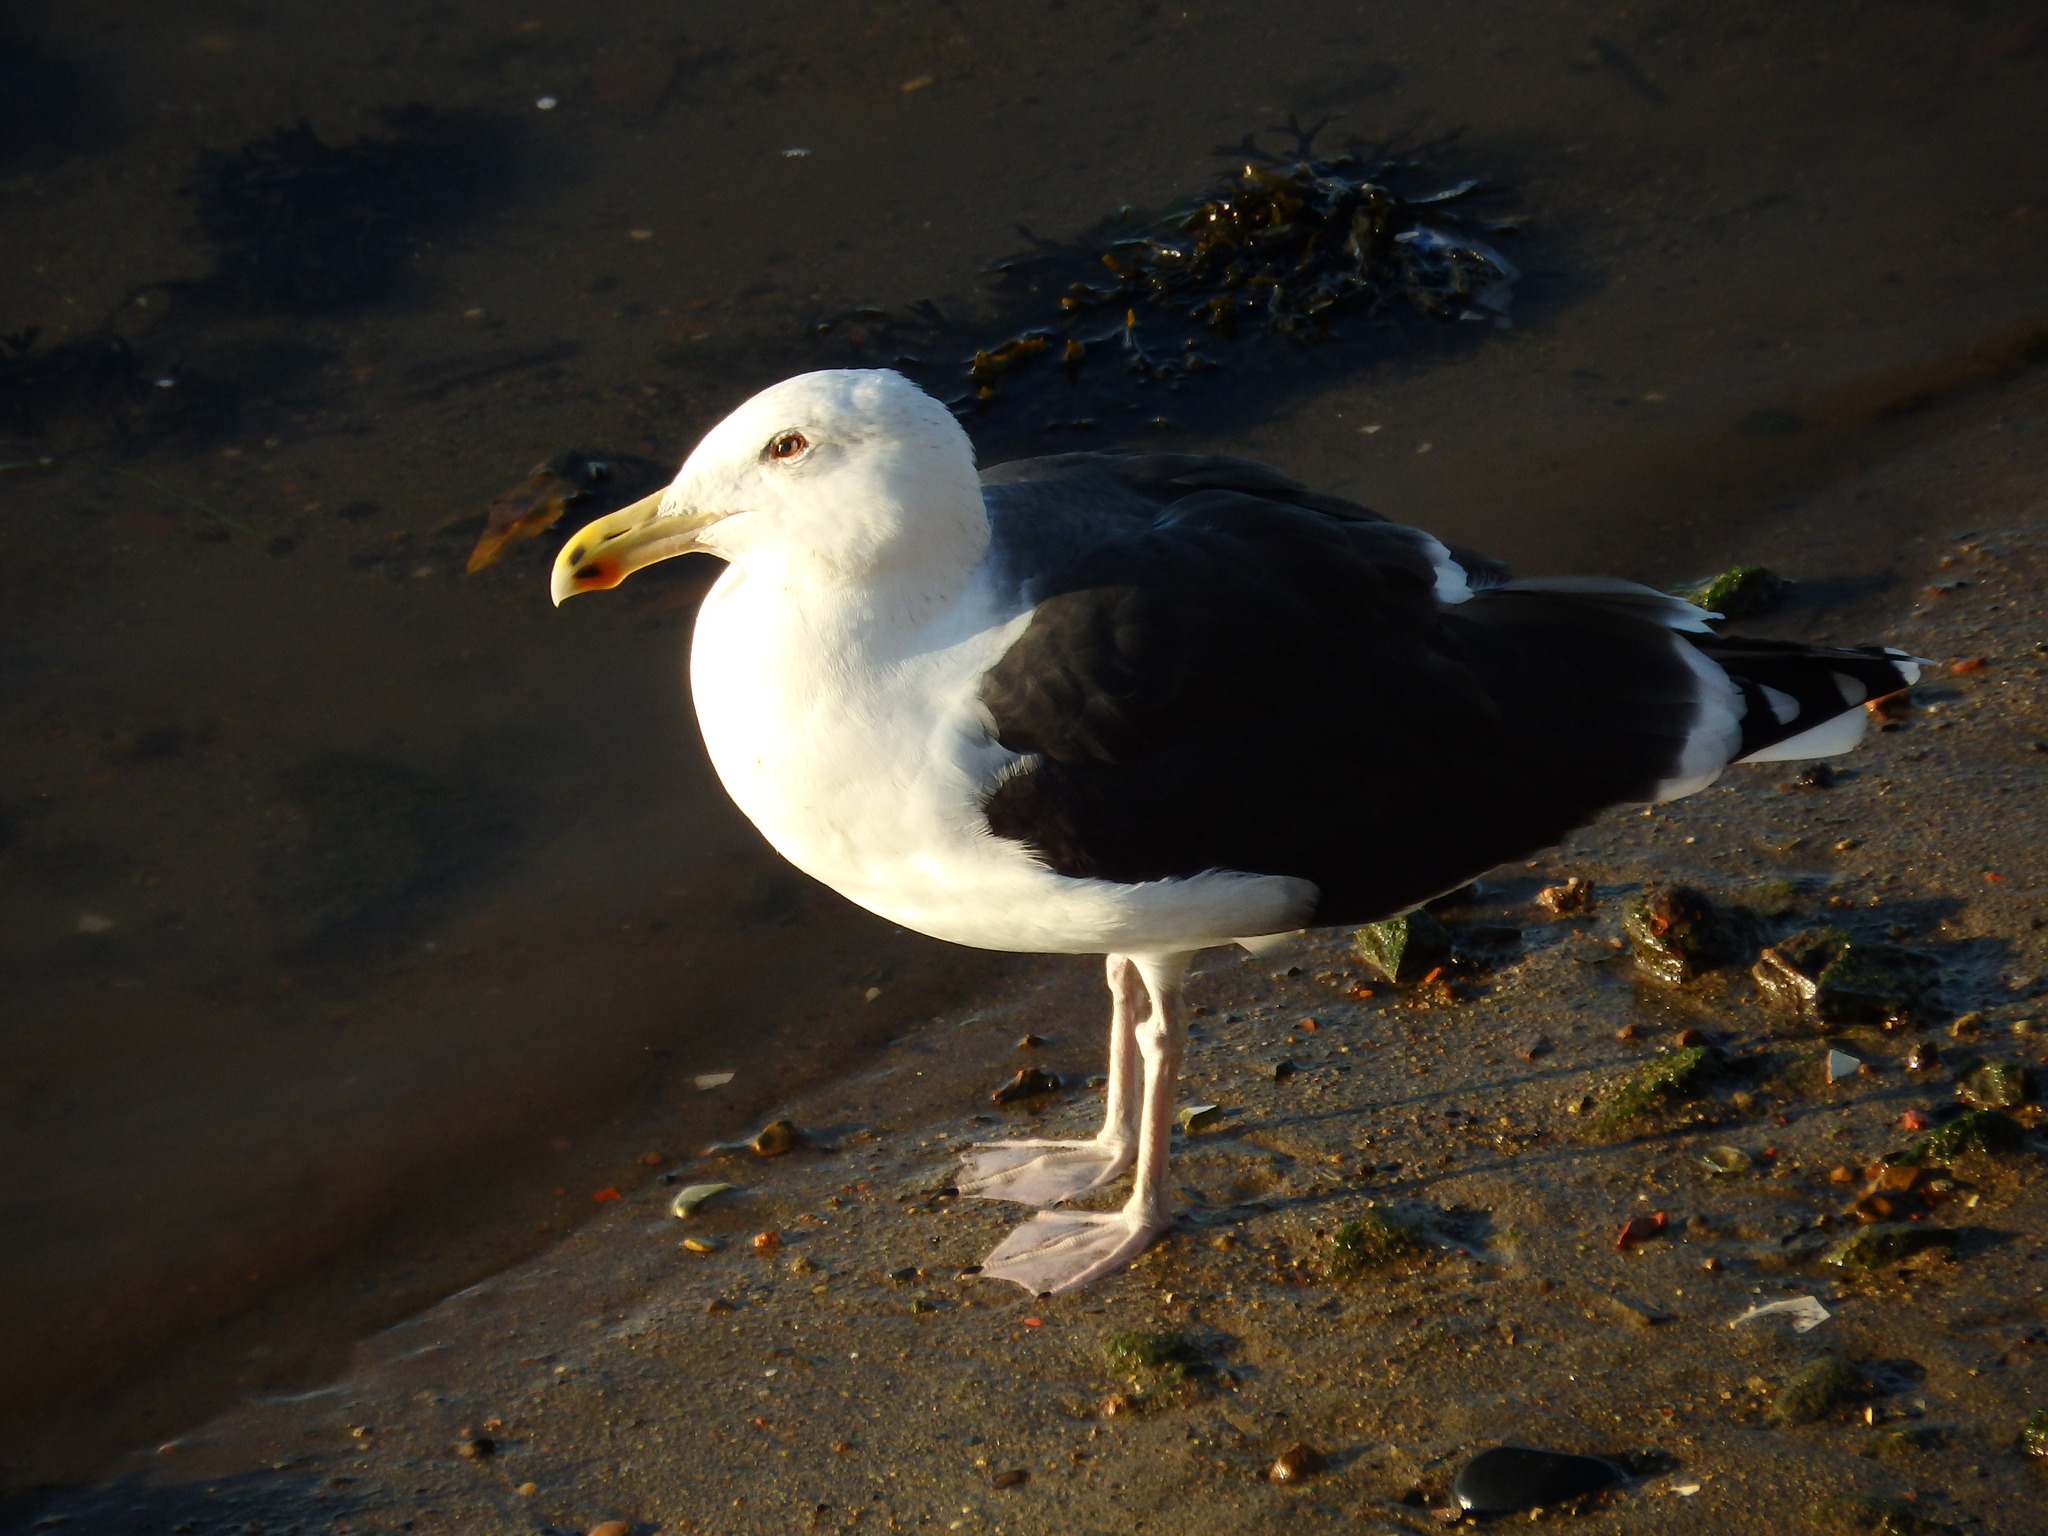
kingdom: Animalia
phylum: Chordata
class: Aves
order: Charadriiformes
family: Laridae
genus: Larus
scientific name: Larus marinus
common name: Great black-backed gull
